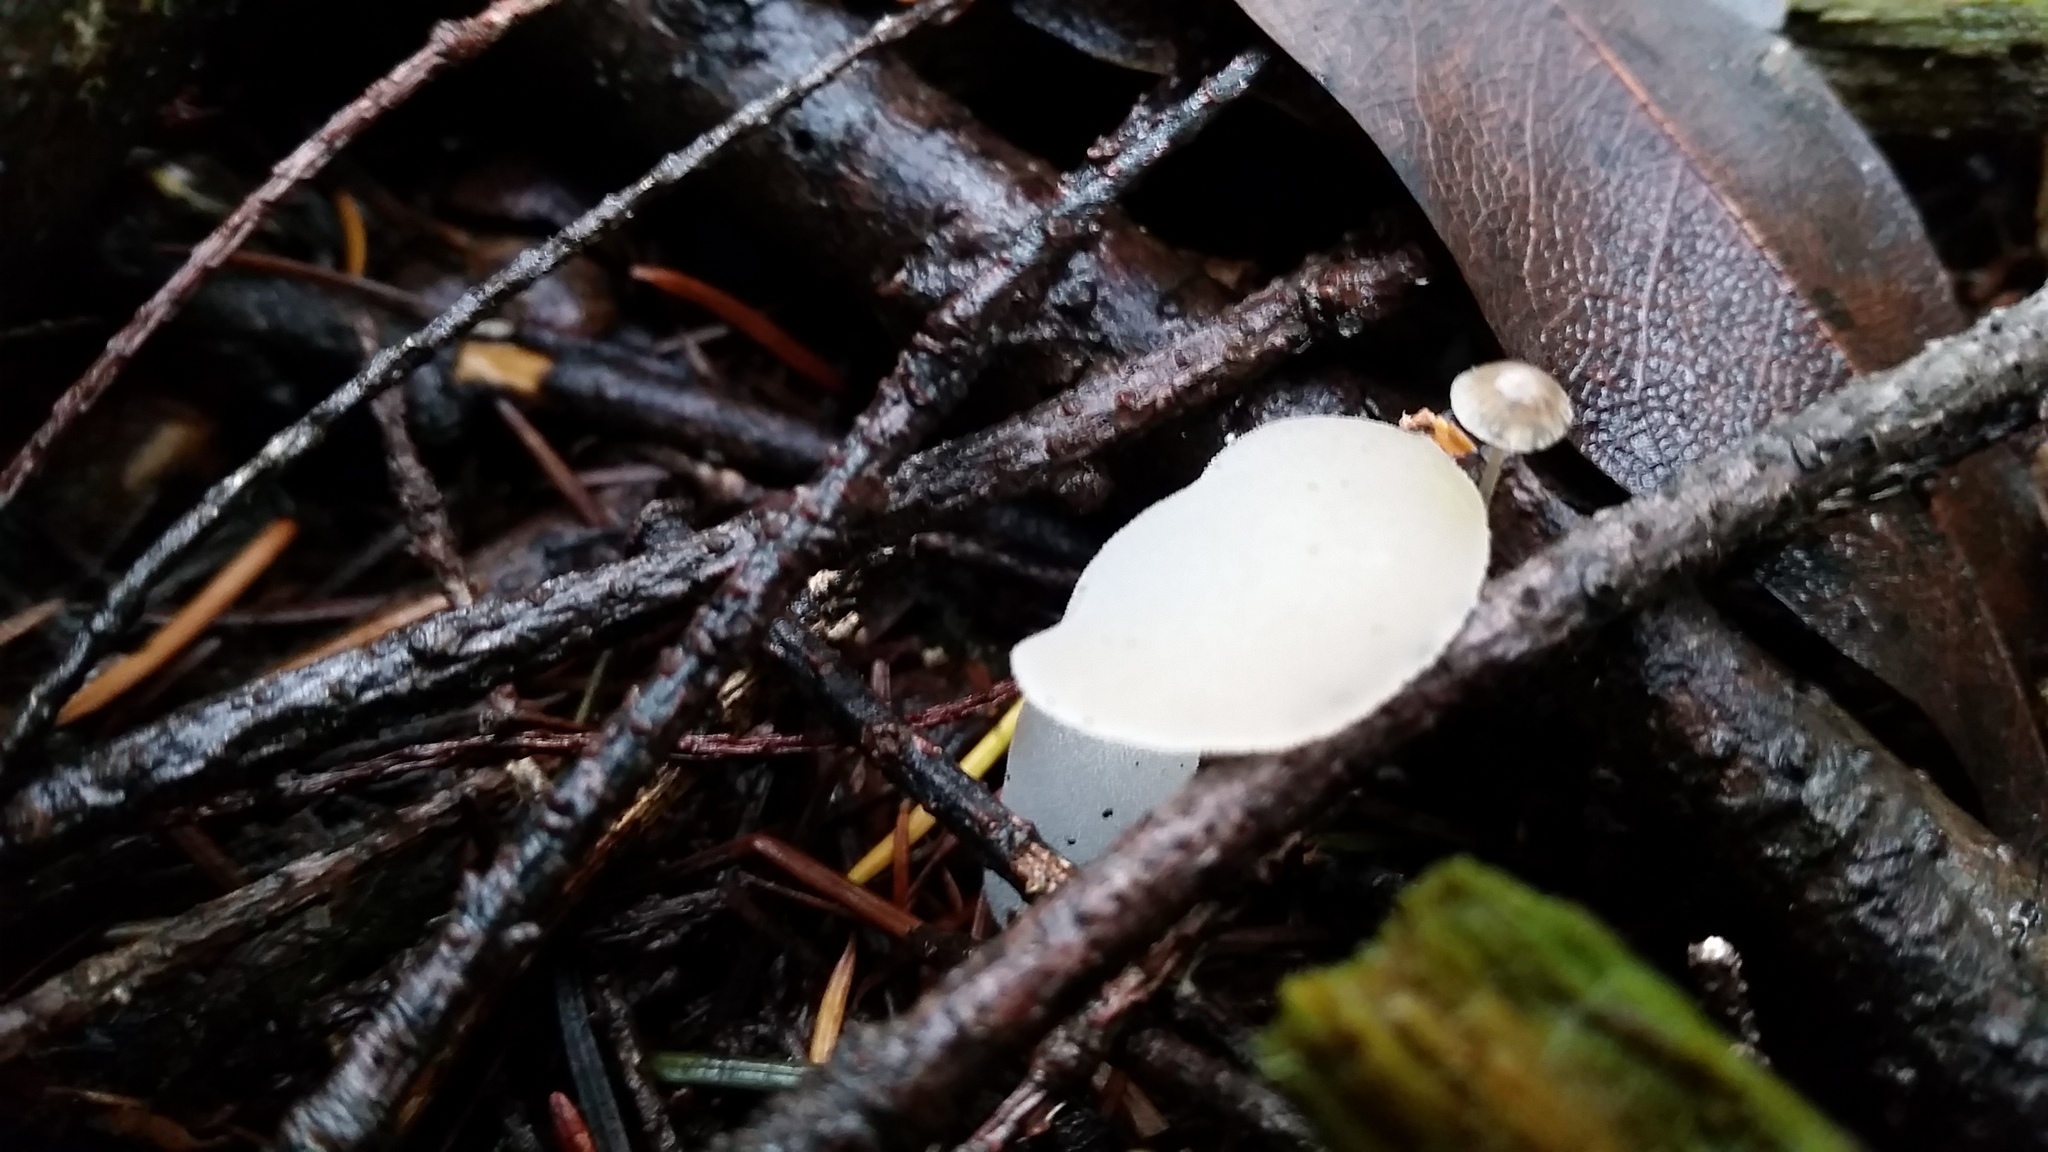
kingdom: Fungi
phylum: Basidiomycota
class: Agaricomycetes
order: Auriculariales
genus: Pseudohydnum
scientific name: Pseudohydnum gelatinosum
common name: Jelly tongue
